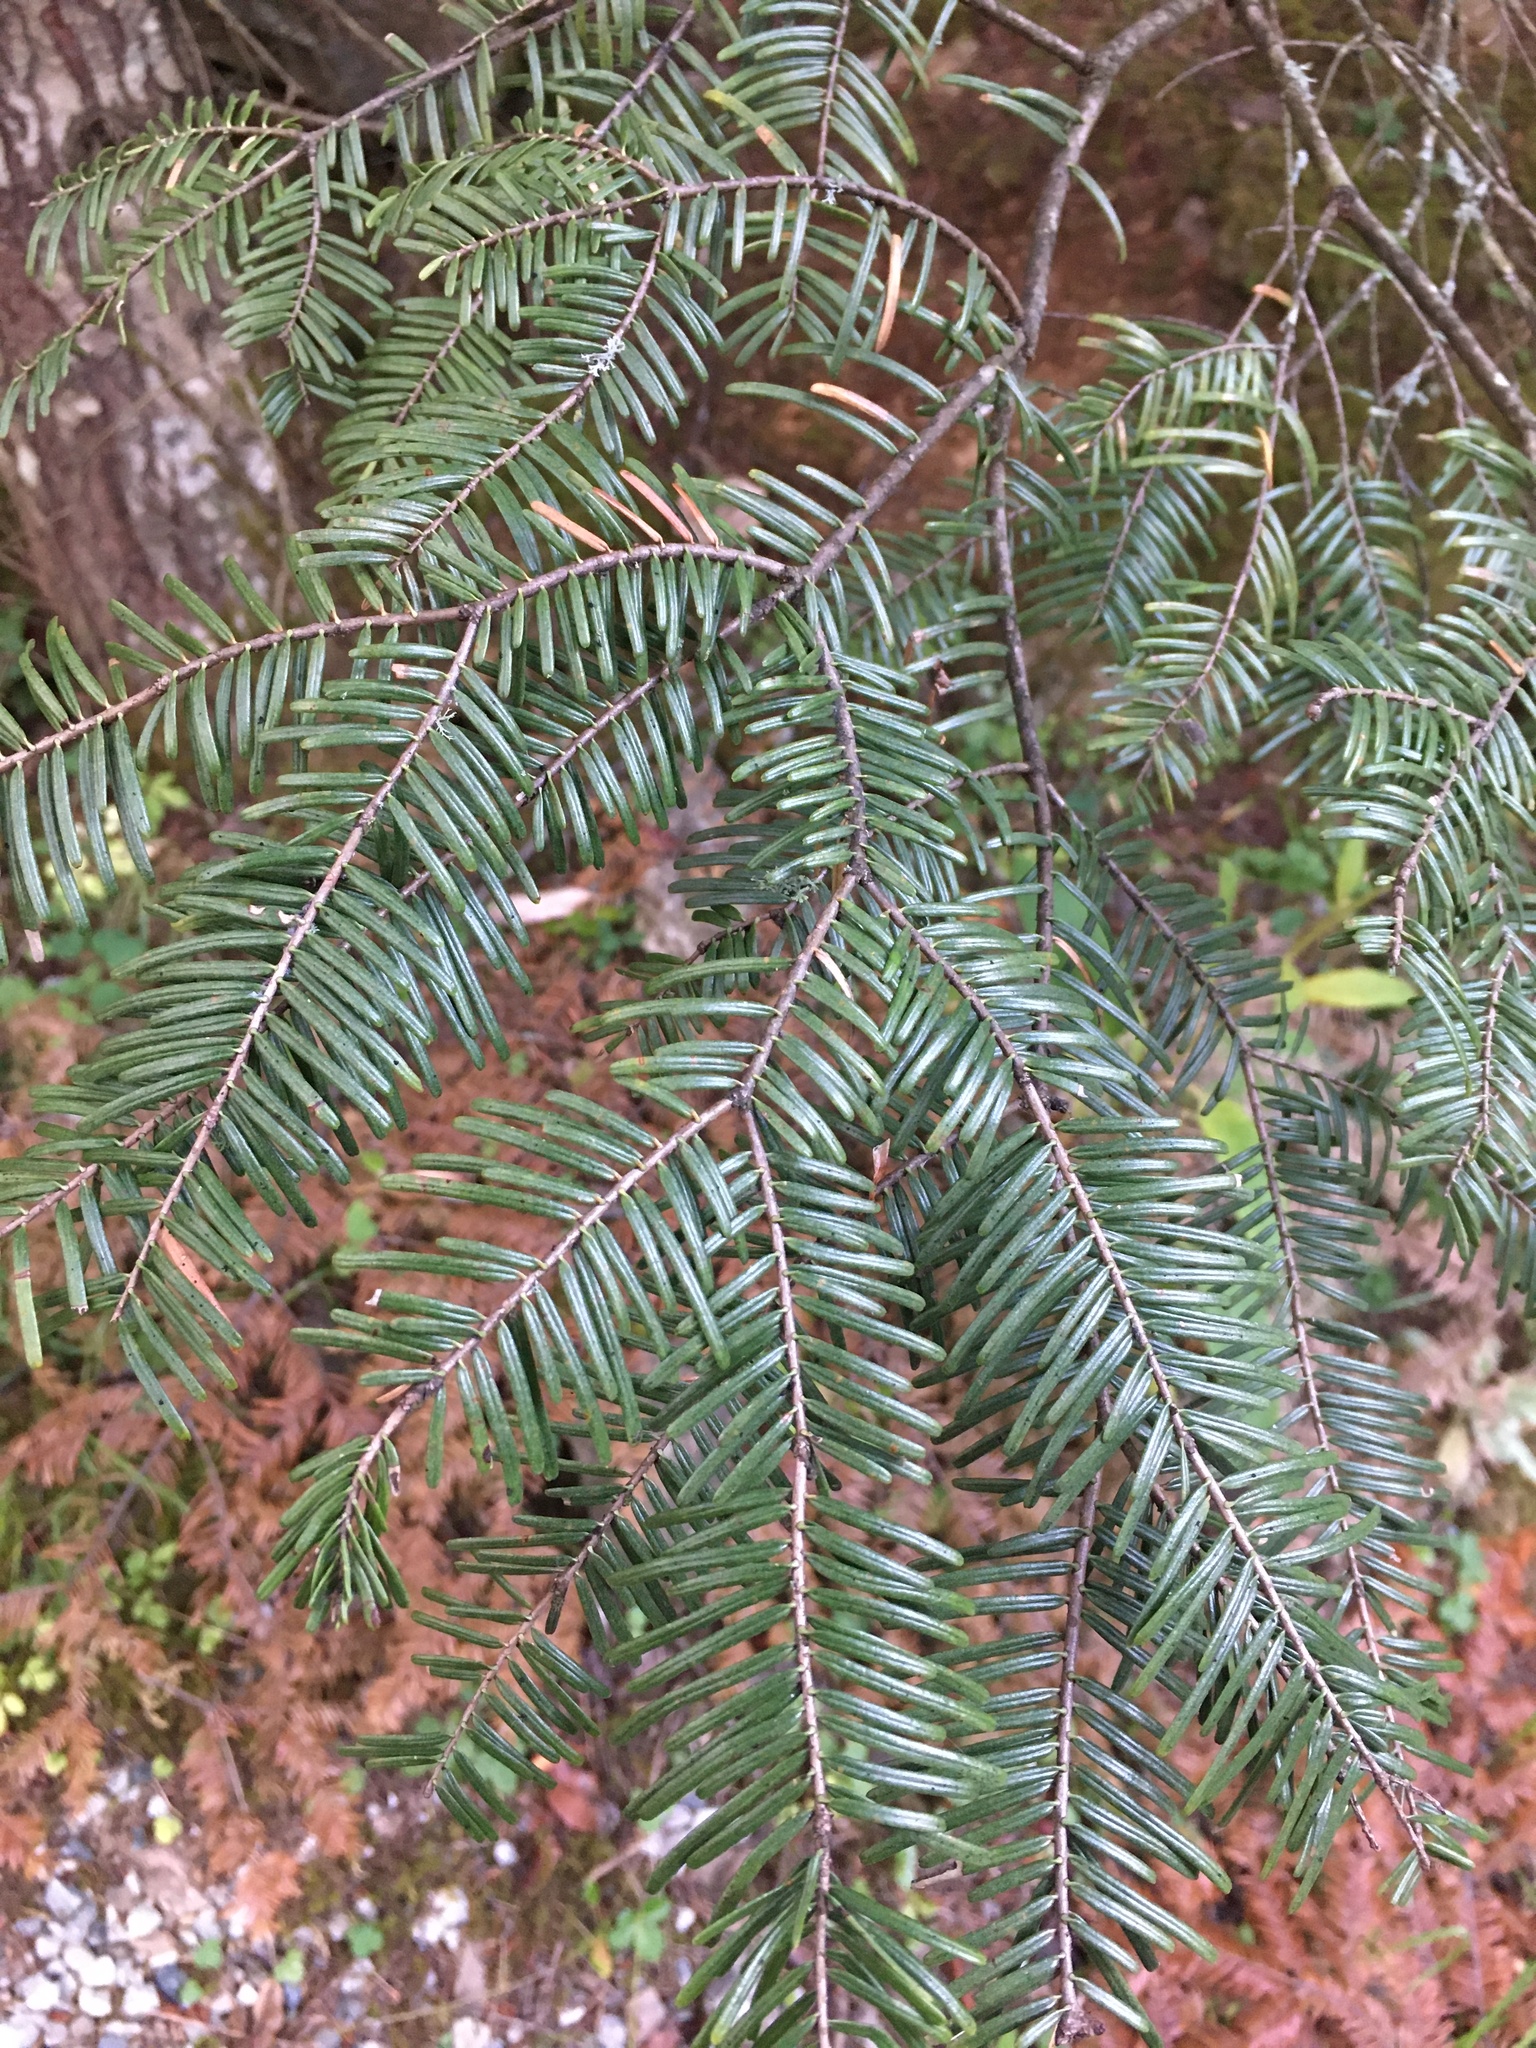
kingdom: Plantae
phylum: Tracheophyta
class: Pinopsida
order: Pinales
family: Pinaceae
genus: Abies
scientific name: Abies grandis
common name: Giant fir
